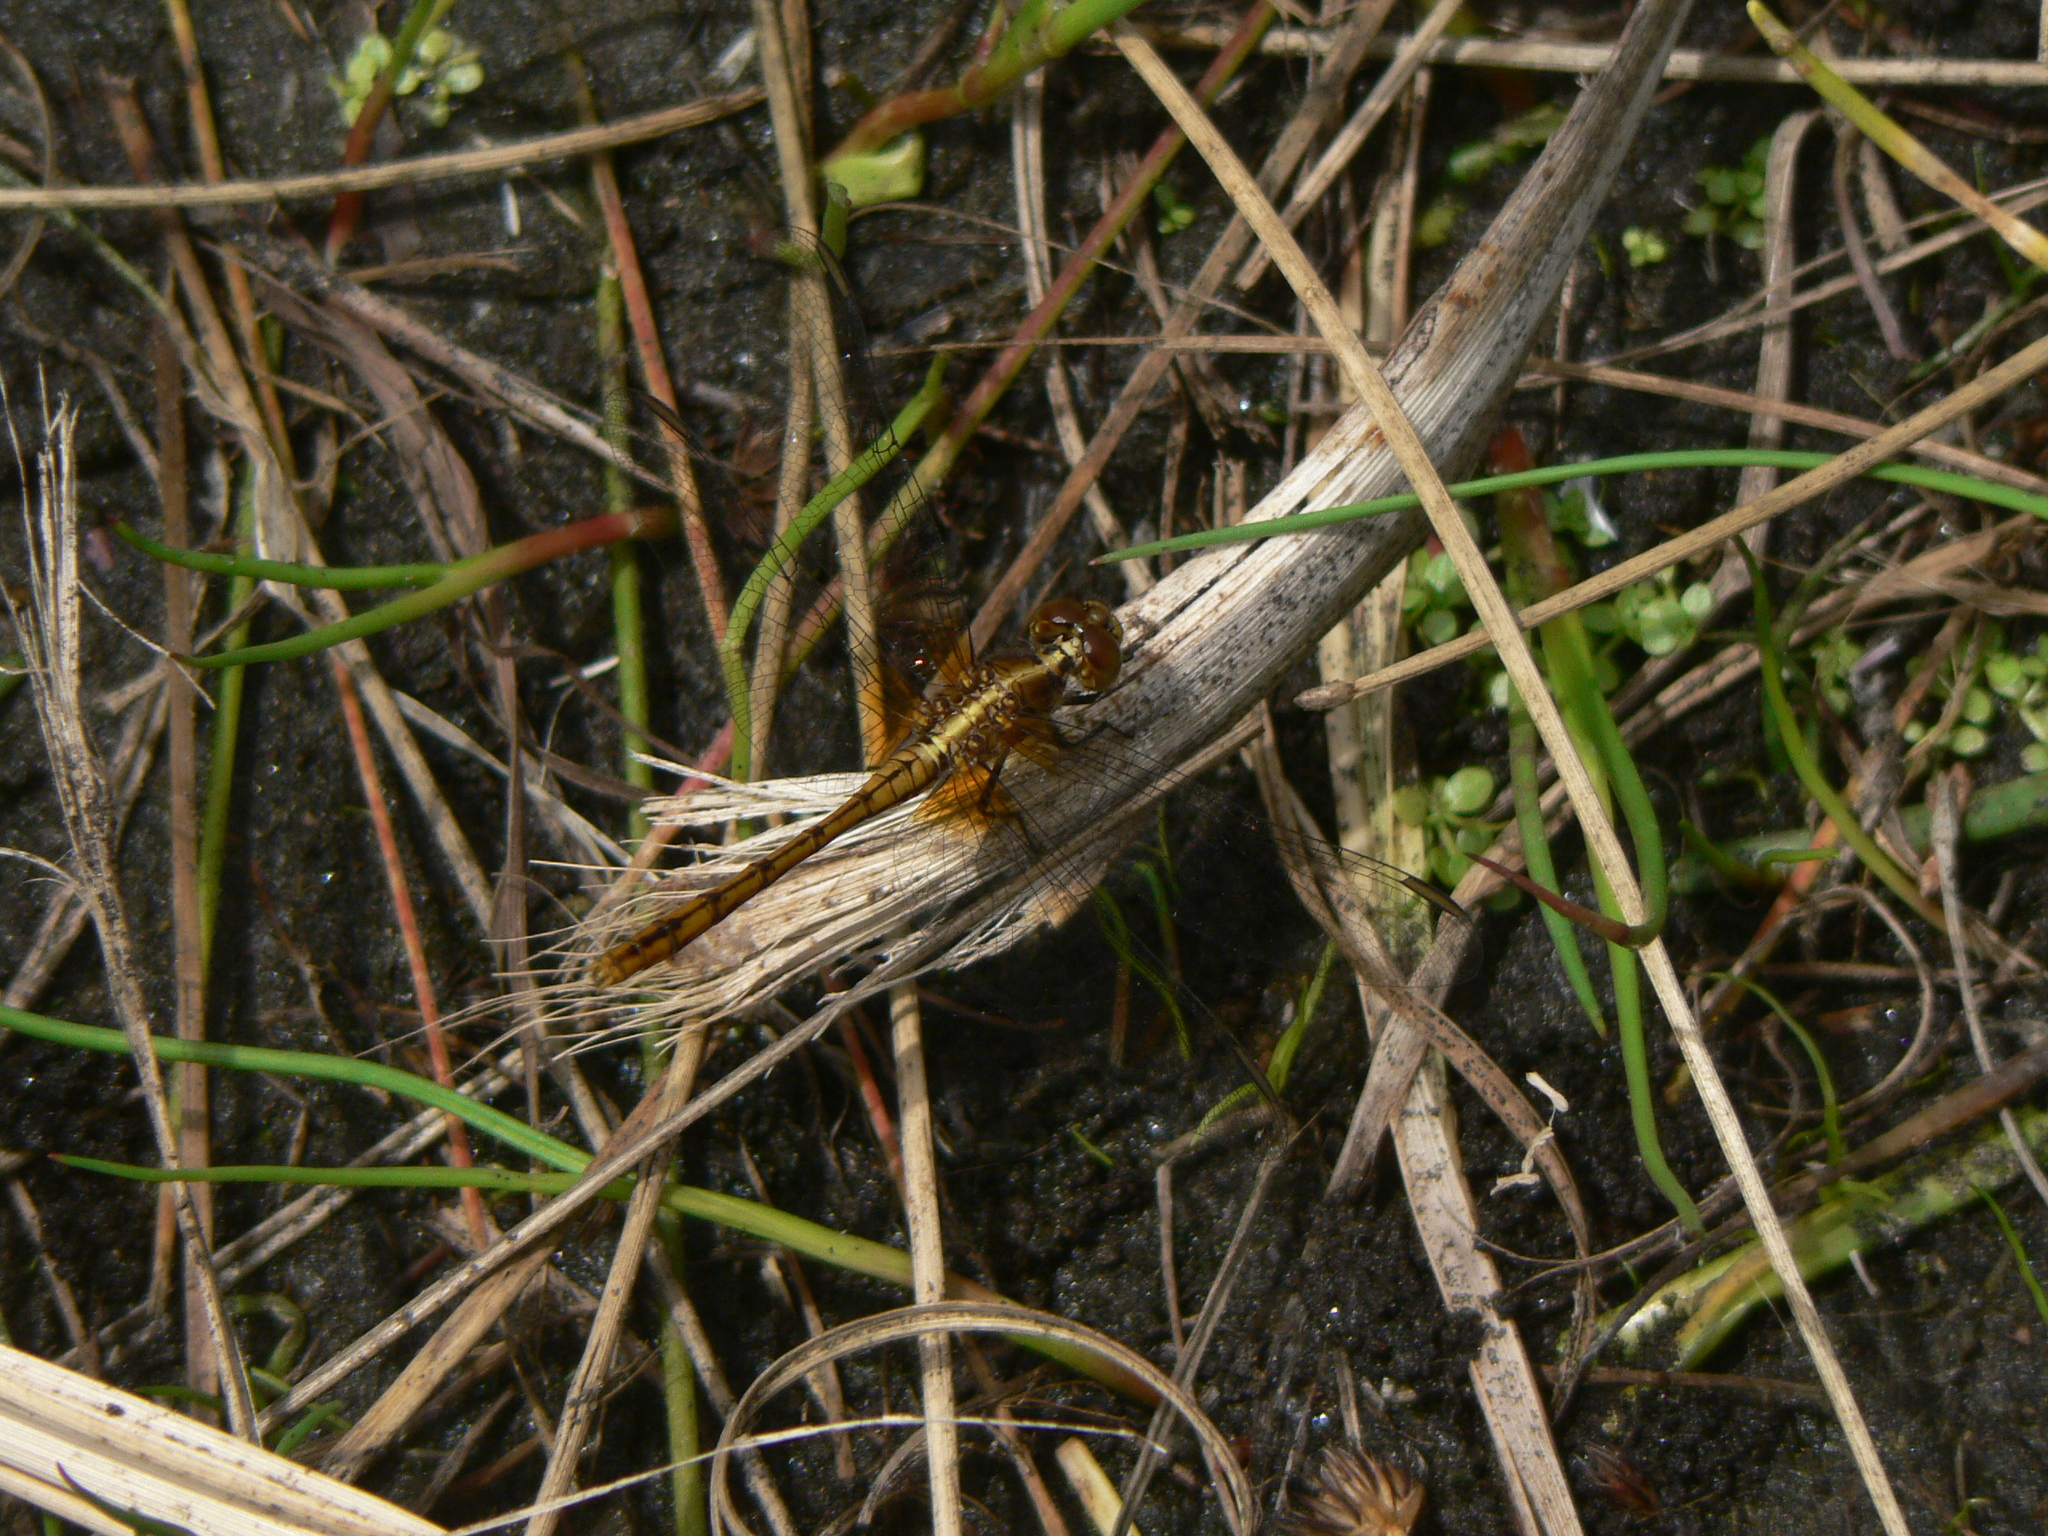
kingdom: Animalia
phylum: Arthropoda
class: Insecta
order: Odonata
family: Libellulidae
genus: Diplacodes
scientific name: Diplacodes bipunctata
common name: Red percher dragonfly
